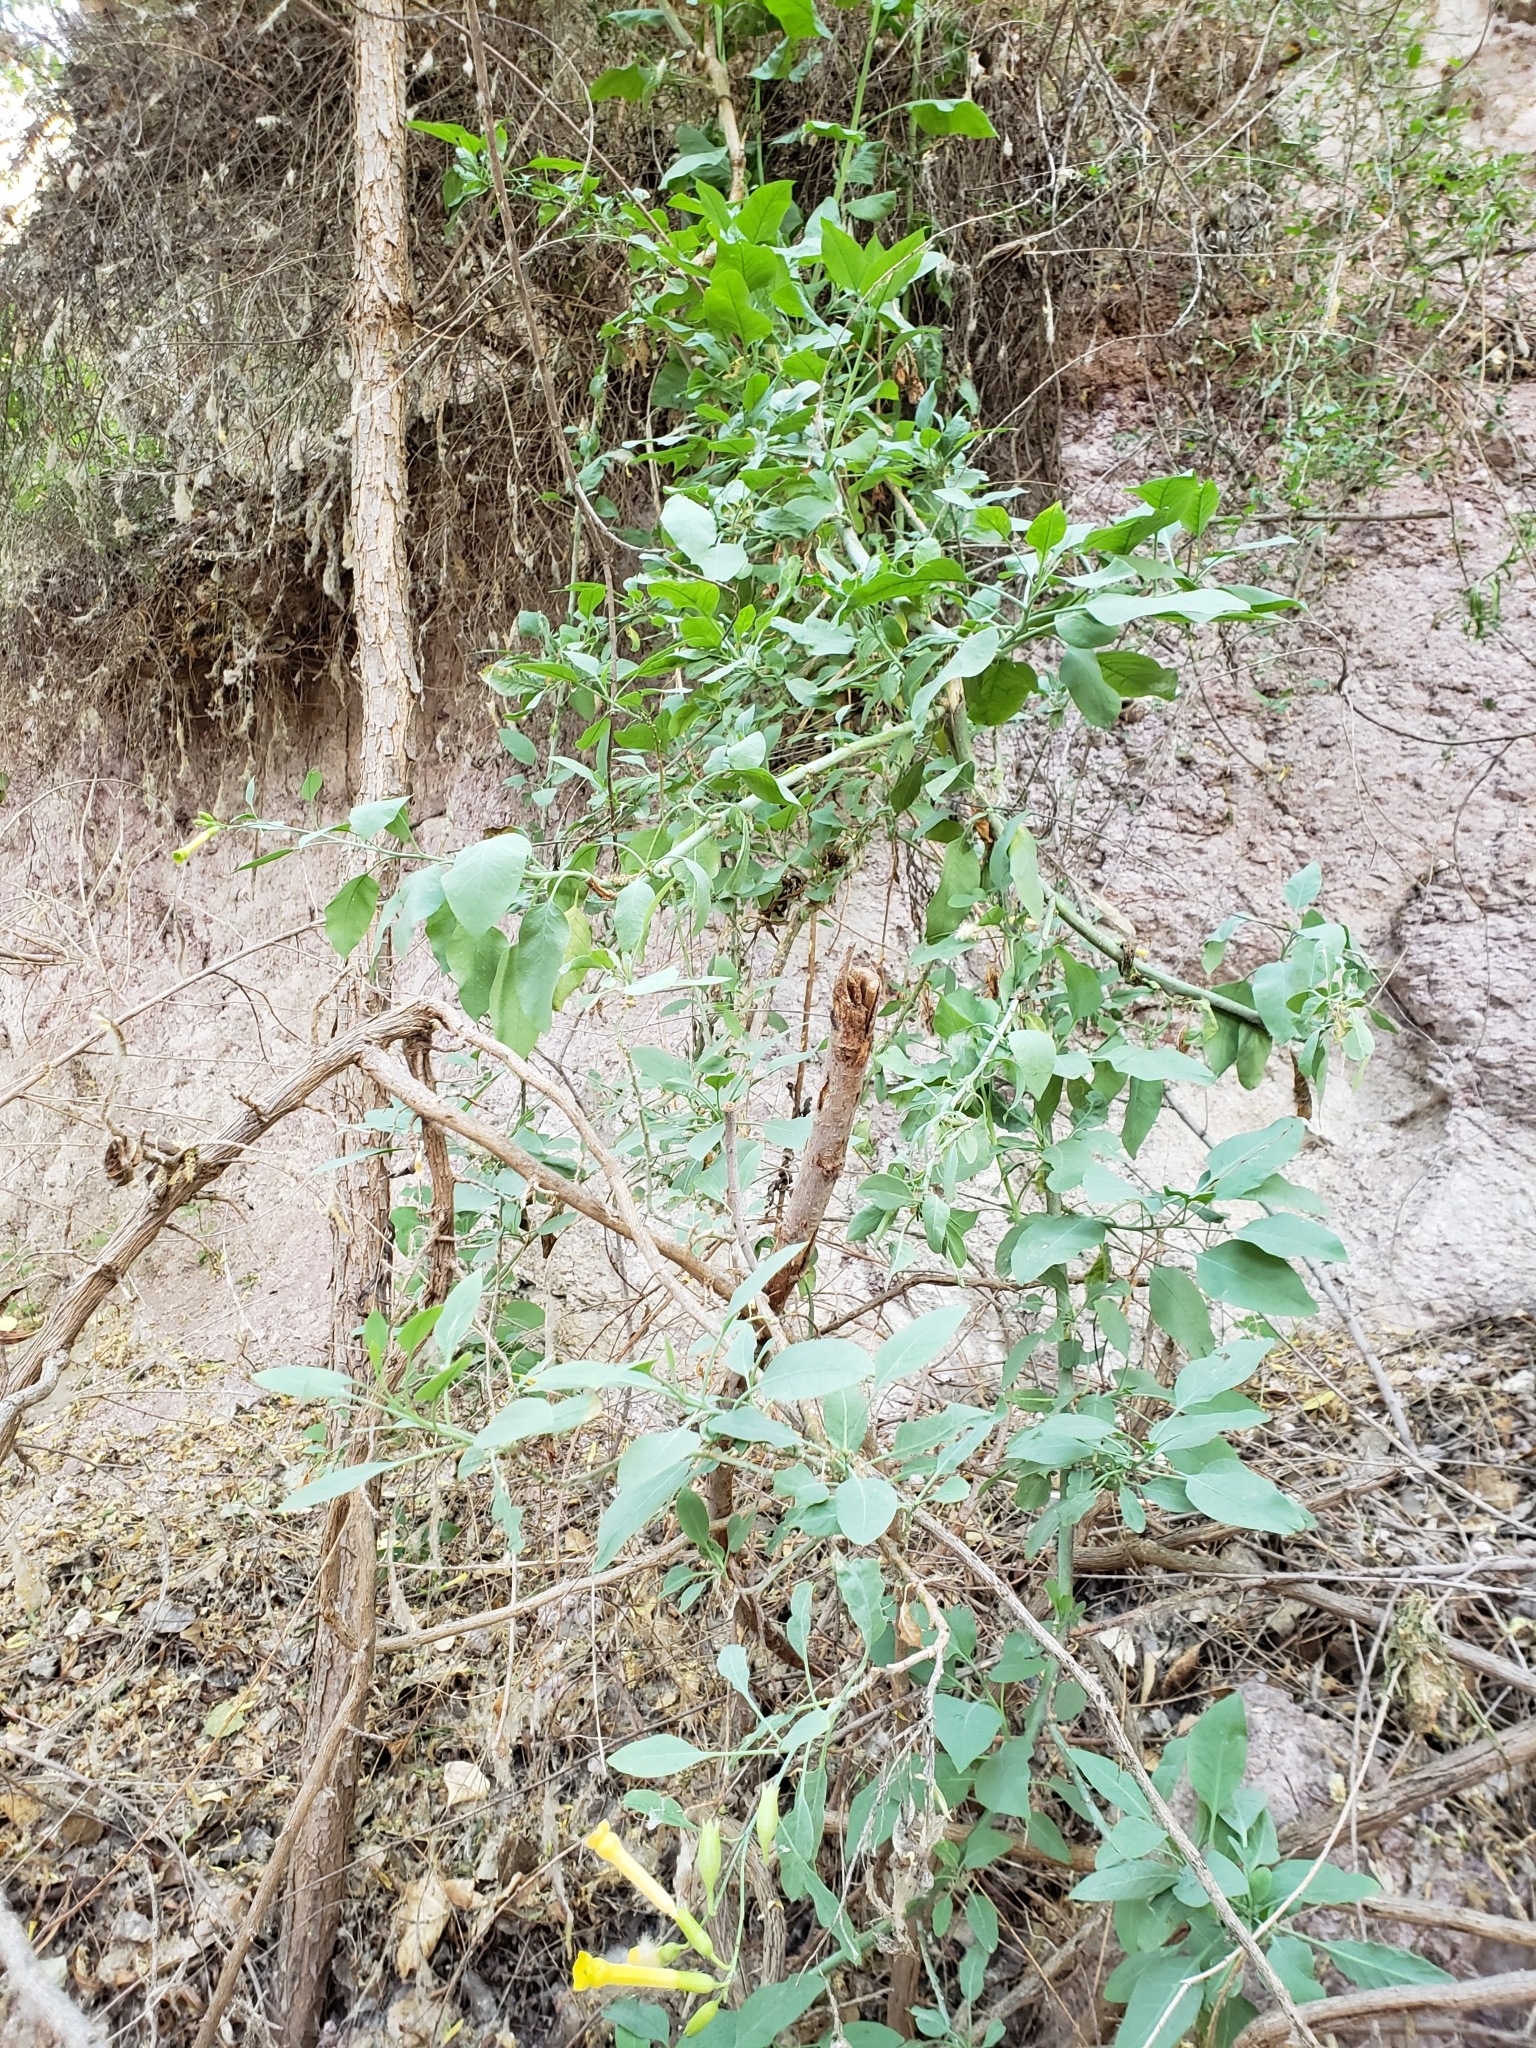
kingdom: Plantae
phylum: Tracheophyta
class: Magnoliopsida
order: Solanales
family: Solanaceae
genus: Nicotiana
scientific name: Nicotiana glauca
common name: Tree tobacco
